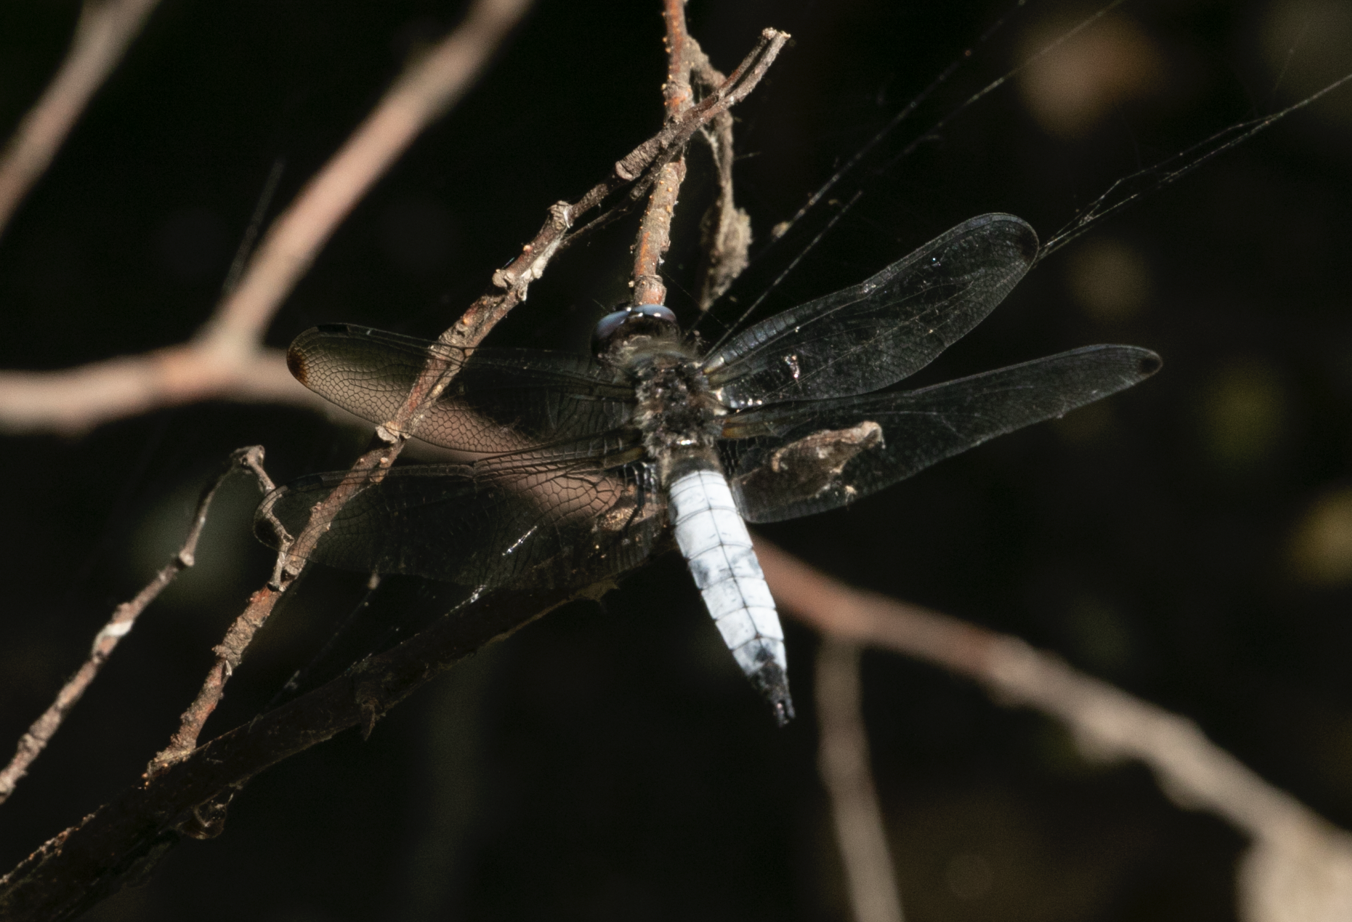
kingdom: Animalia
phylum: Arthropoda
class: Insecta
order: Odonata
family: Libellulidae
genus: Libellula
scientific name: Libellula fulva
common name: Blue chaser
